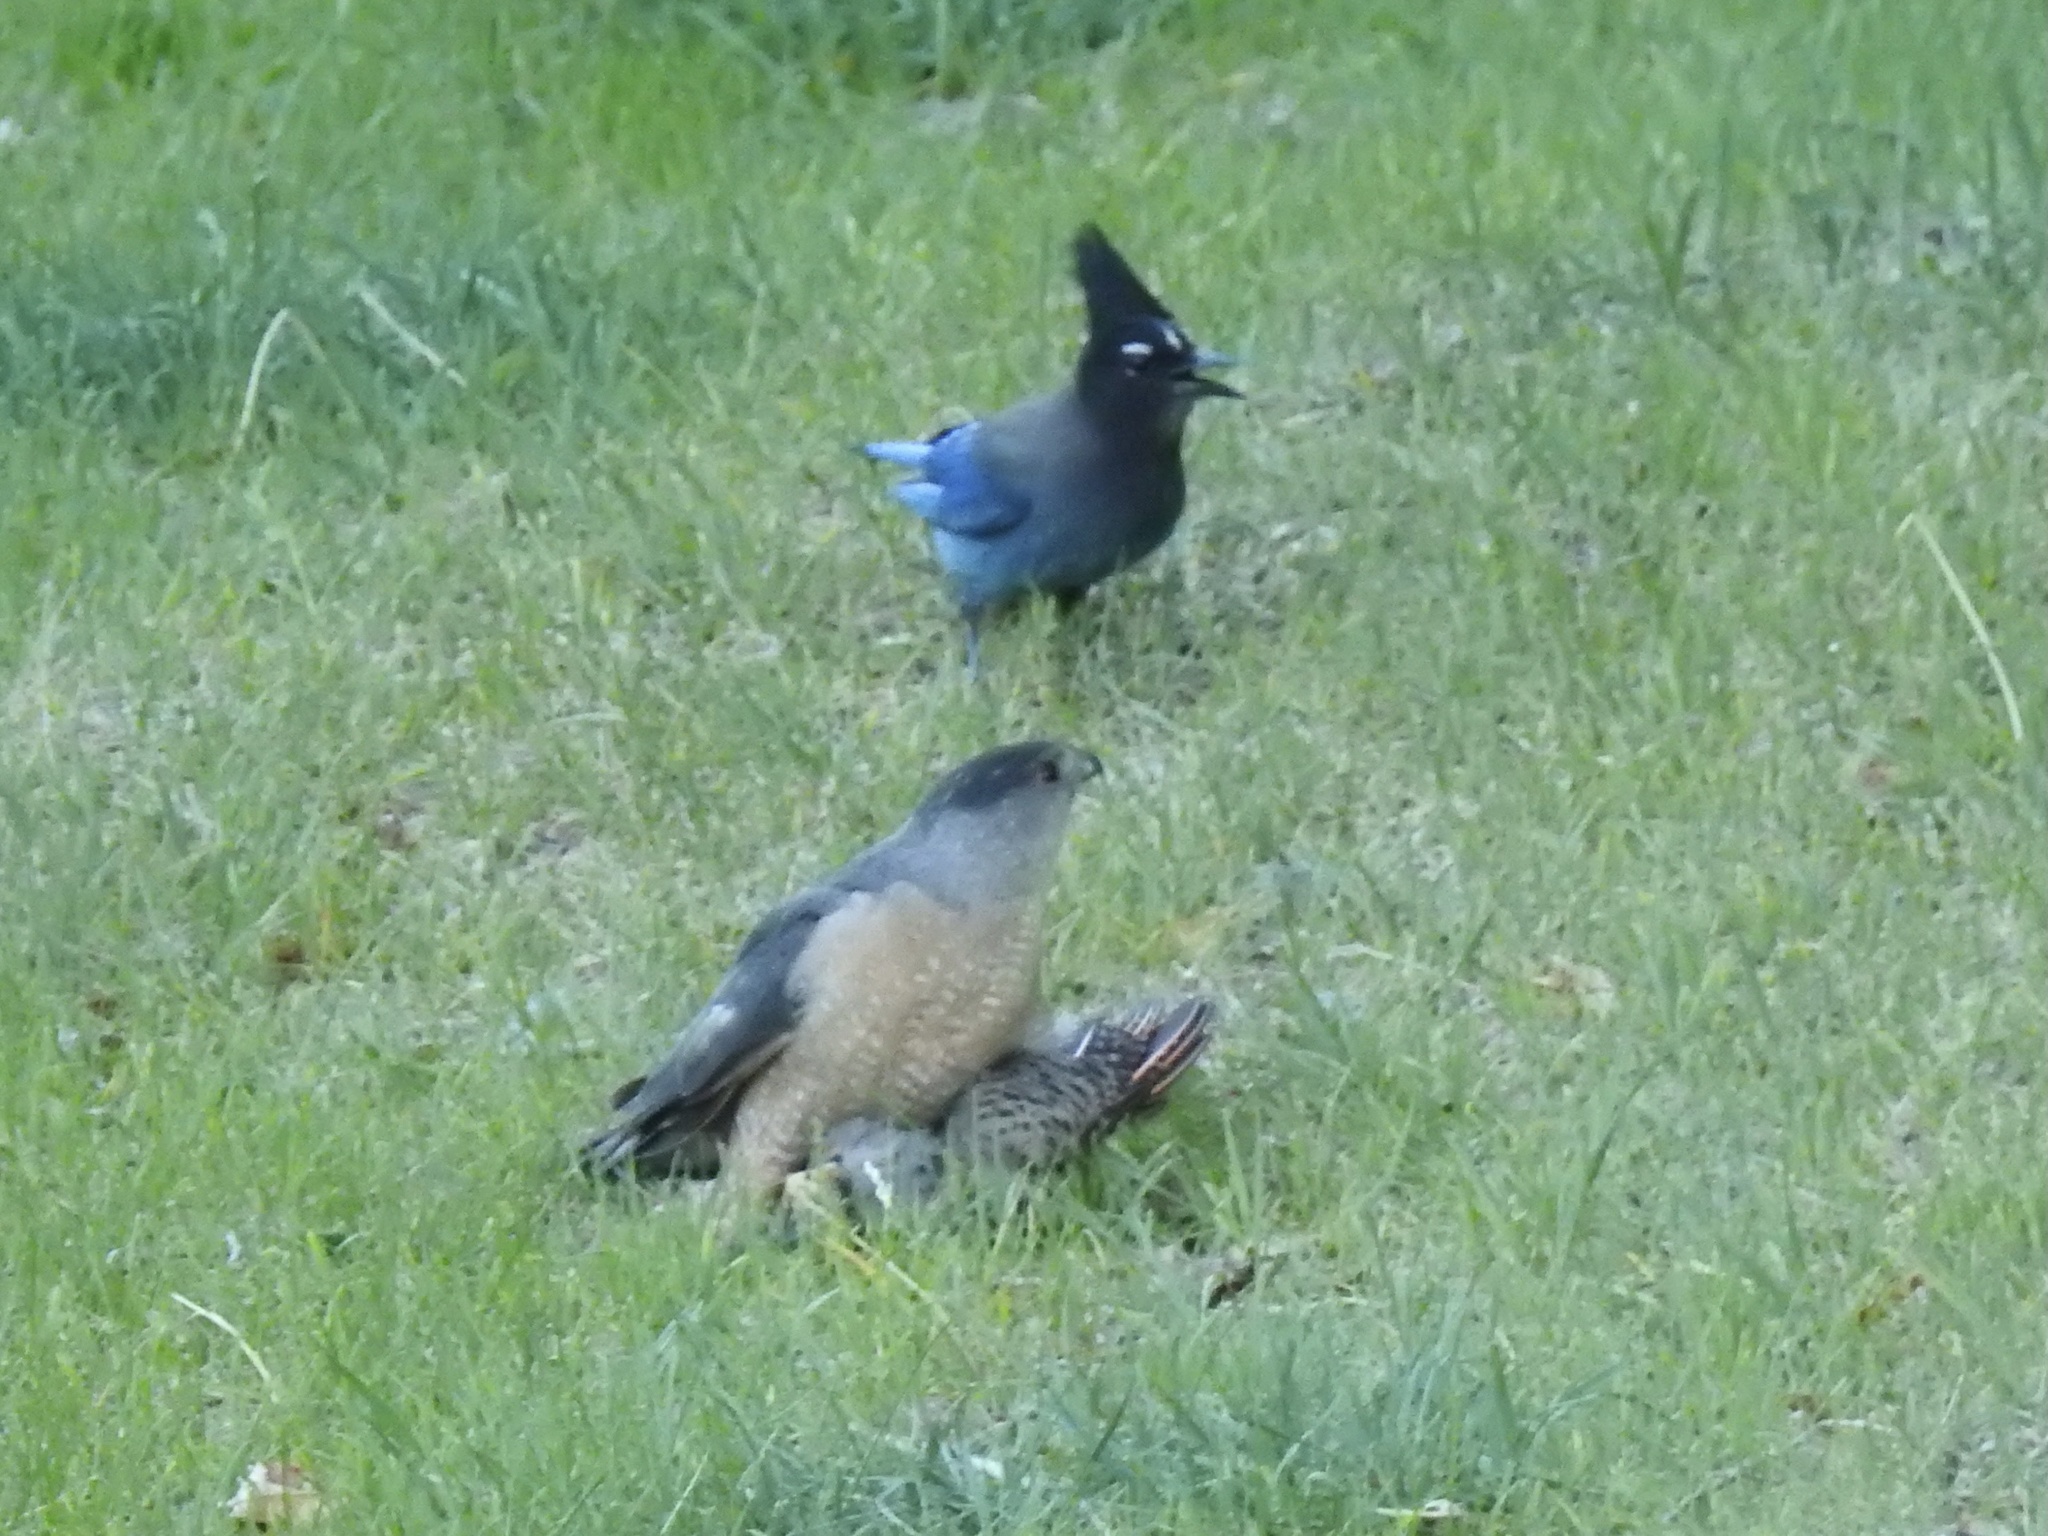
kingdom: Animalia
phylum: Chordata
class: Aves
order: Passeriformes
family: Corvidae
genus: Cyanocitta
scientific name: Cyanocitta stelleri
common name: Steller's jay
